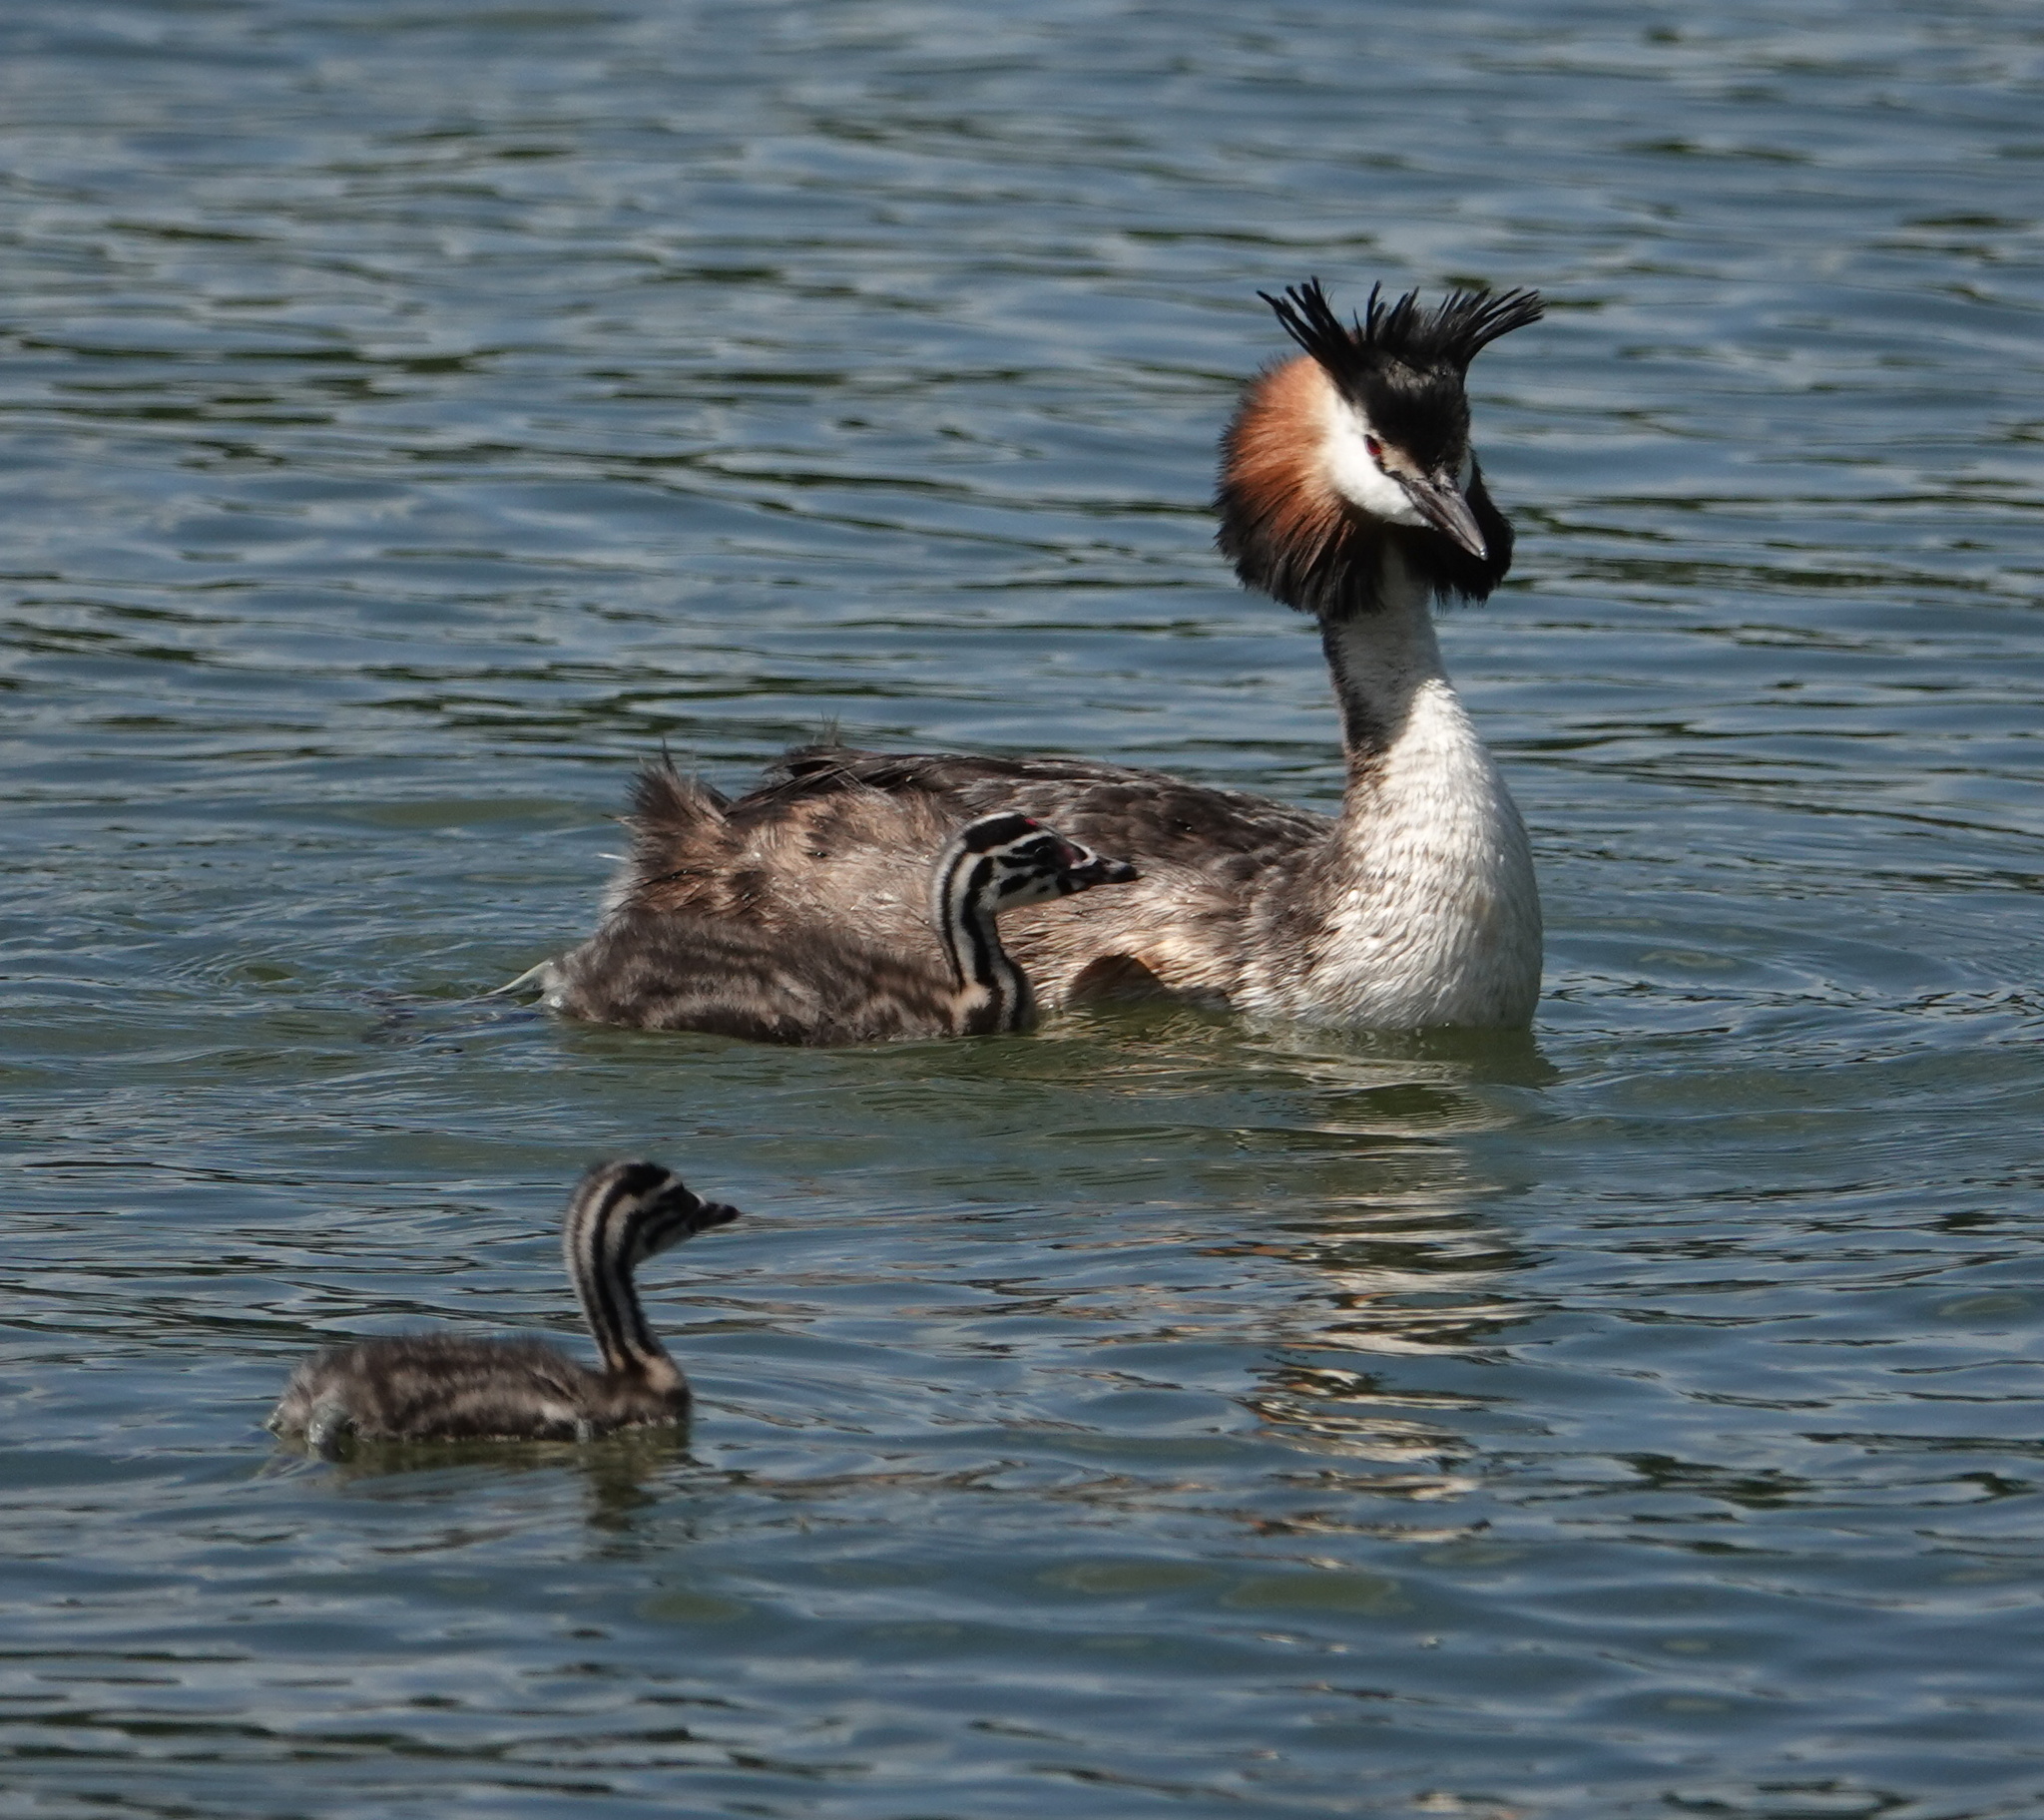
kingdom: Animalia
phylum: Chordata
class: Aves
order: Podicipediformes
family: Podicipedidae
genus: Podiceps
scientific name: Podiceps cristatus
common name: Great crested grebe
